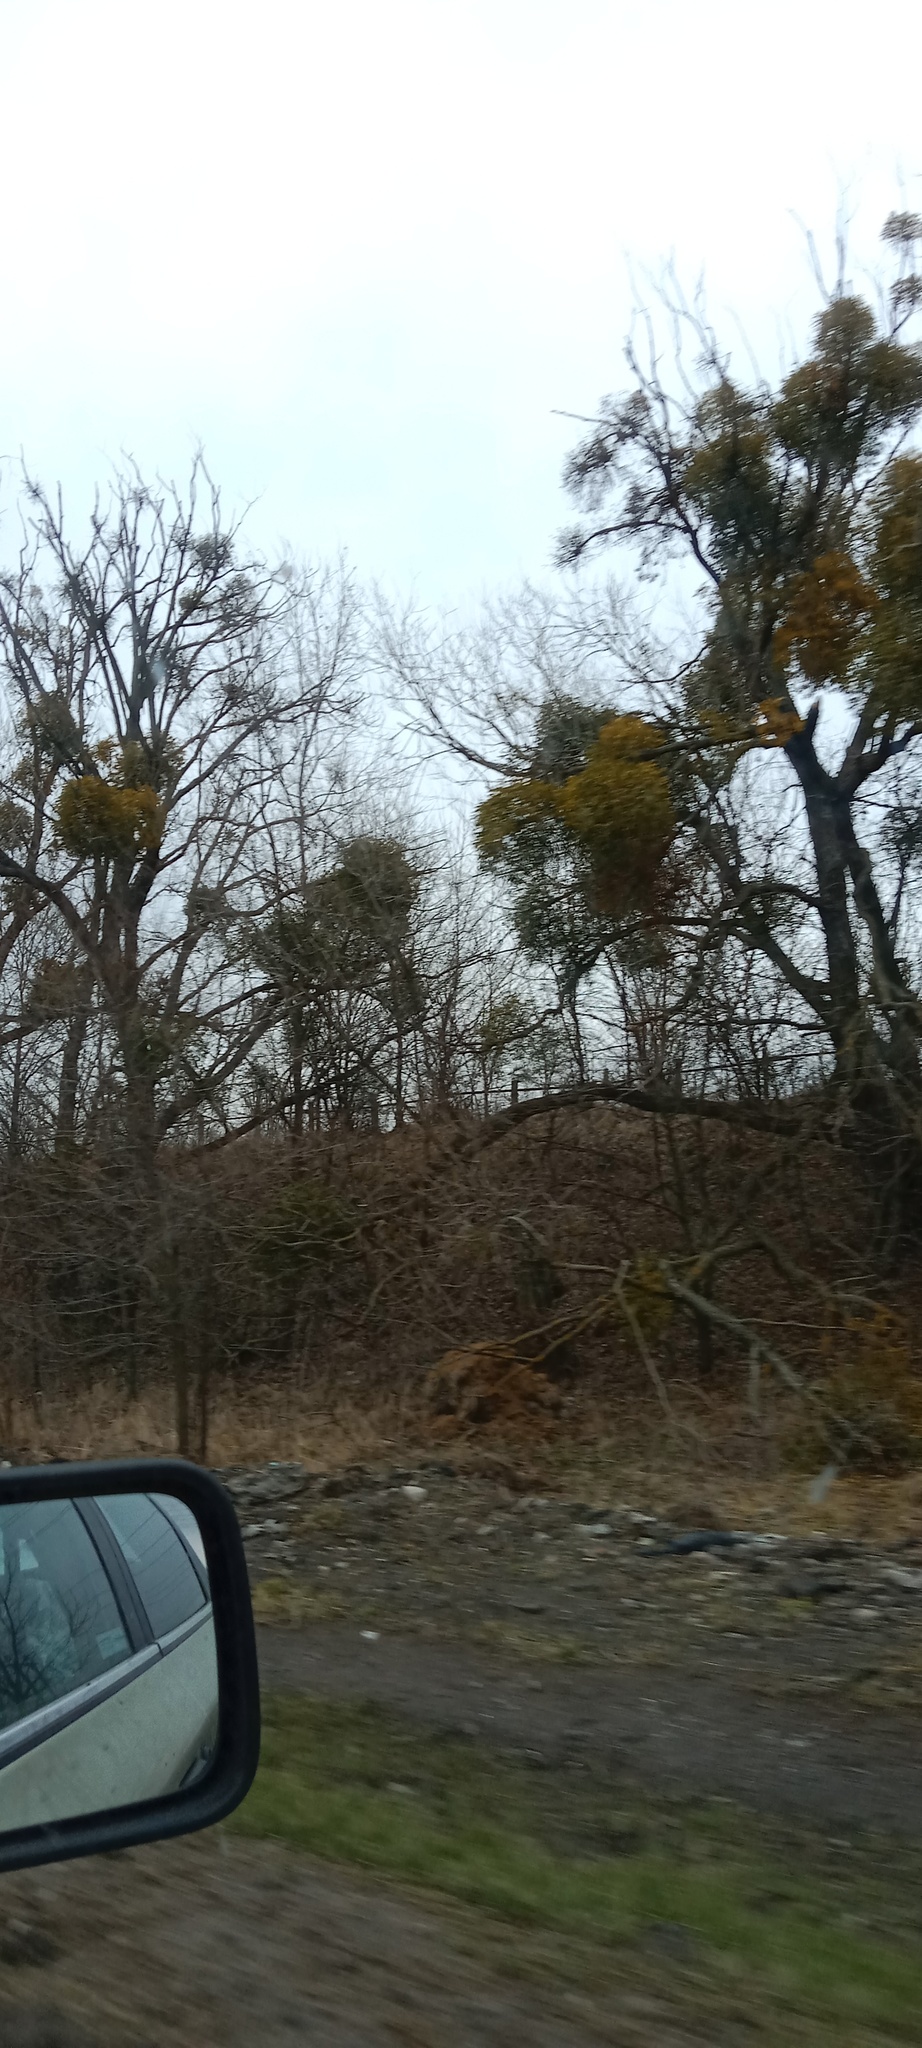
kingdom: Plantae
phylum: Tracheophyta
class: Magnoliopsida
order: Santalales
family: Viscaceae
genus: Viscum
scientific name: Viscum album
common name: Mistletoe
